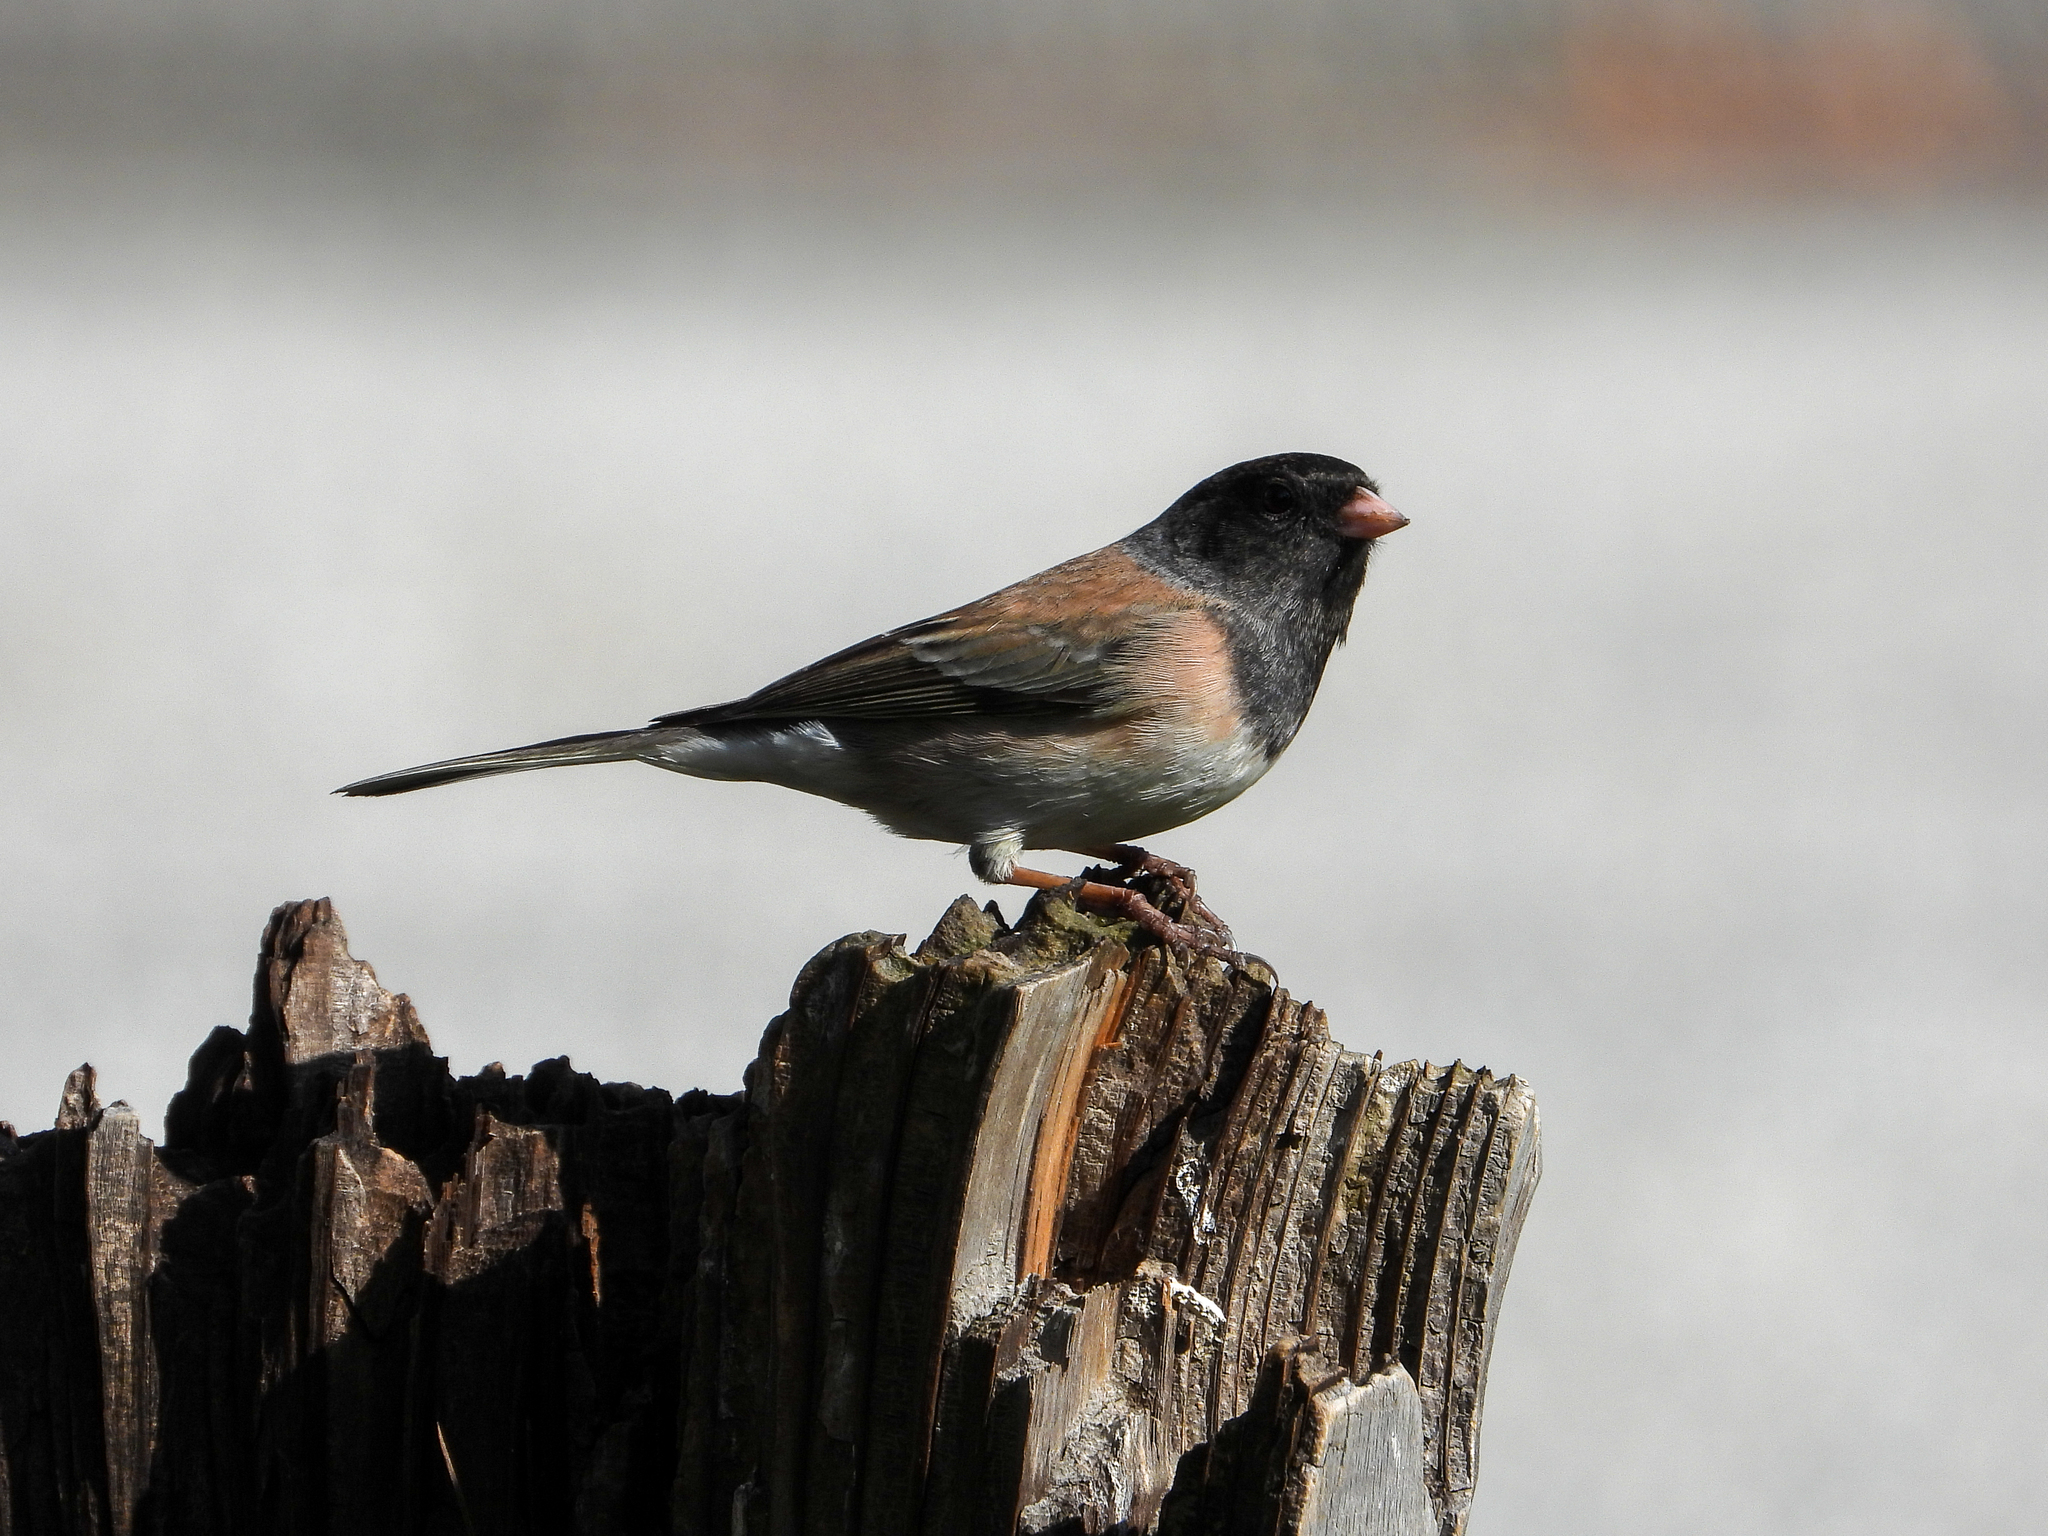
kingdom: Animalia
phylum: Chordata
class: Aves
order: Passeriformes
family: Passerellidae
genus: Junco
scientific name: Junco hyemalis
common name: Dark-eyed junco
